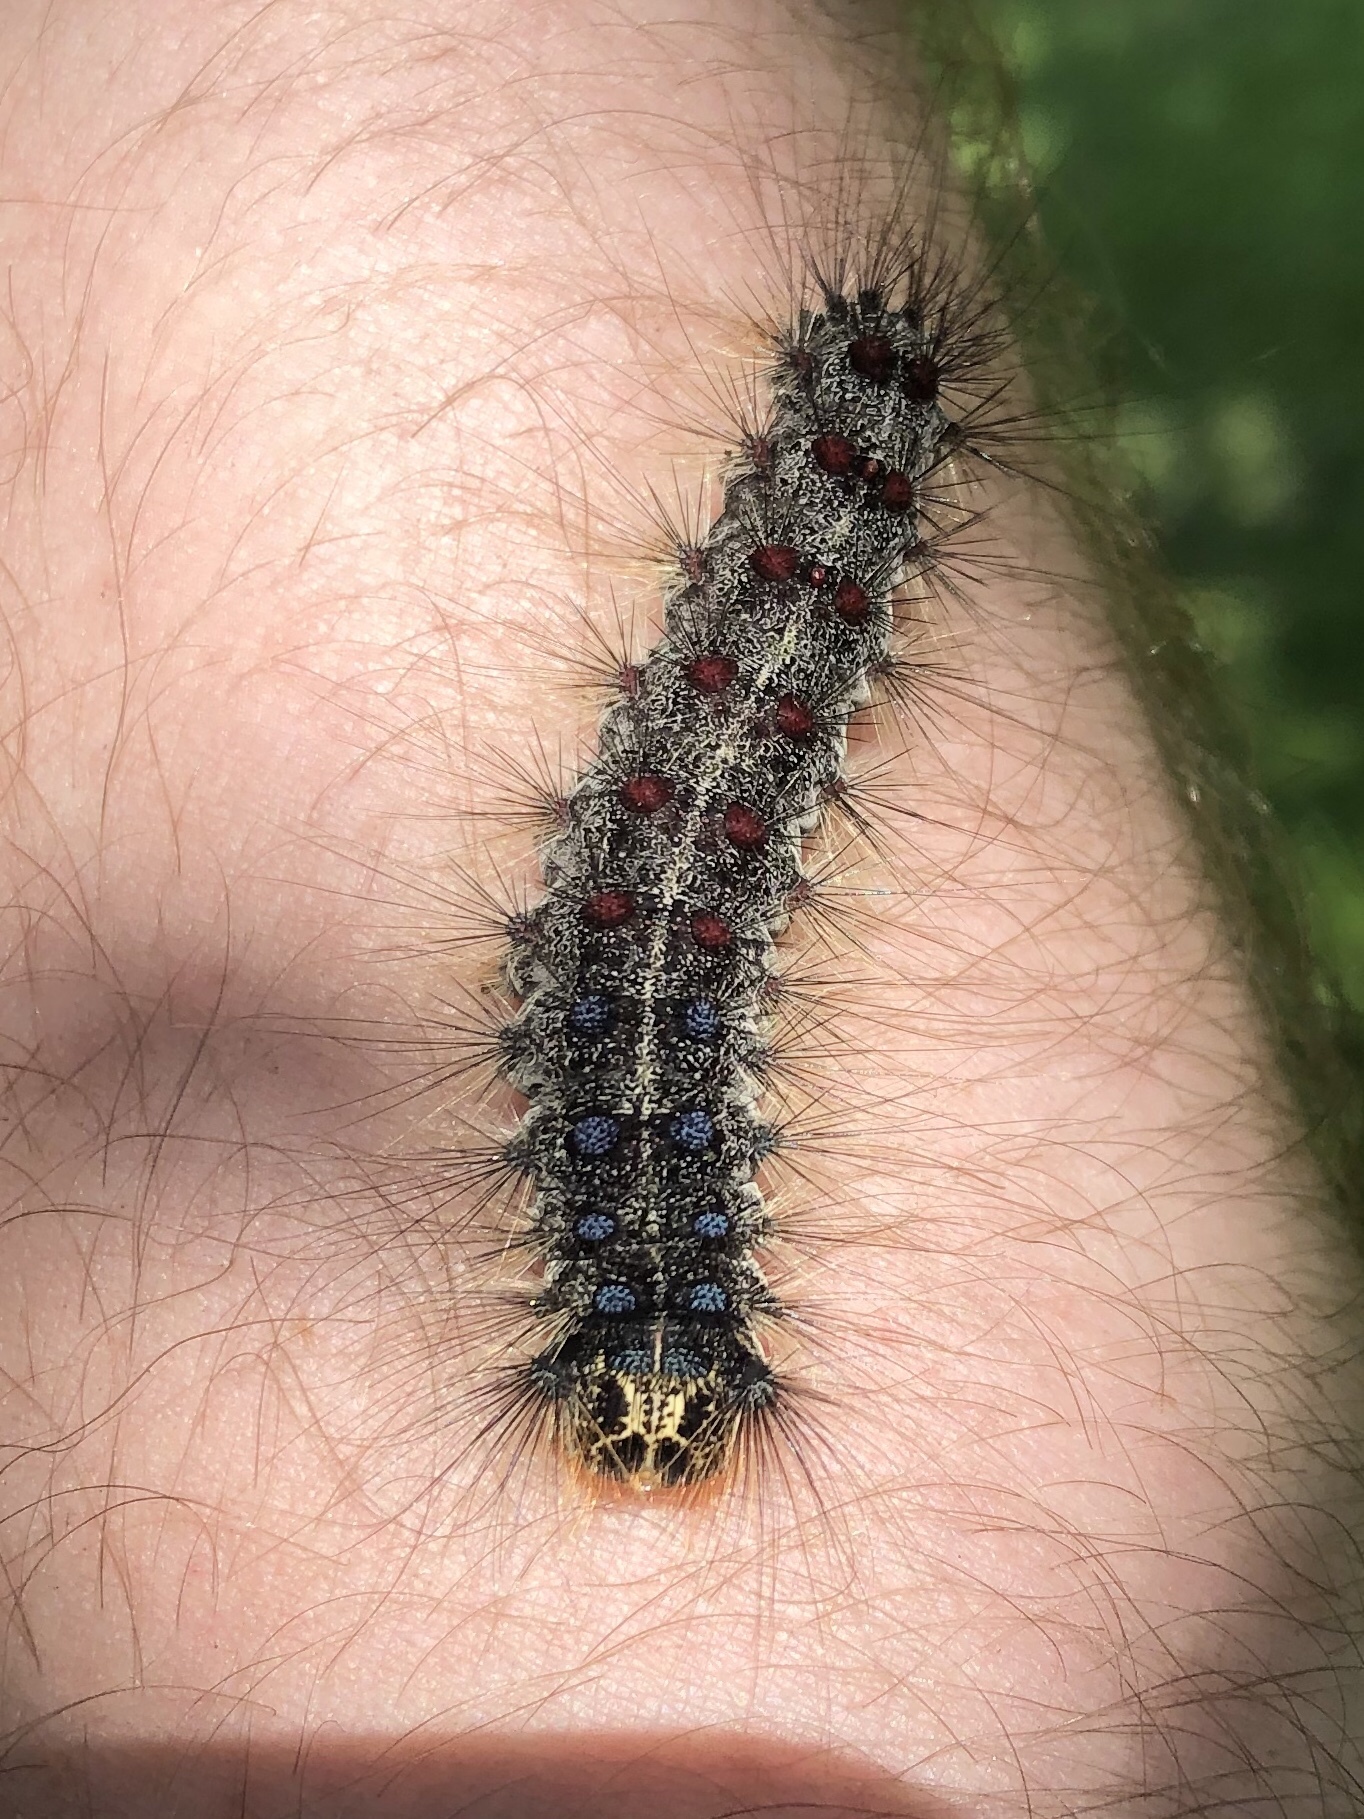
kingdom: Animalia
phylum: Arthropoda
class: Insecta
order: Lepidoptera
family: Erebidae
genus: Lymantria
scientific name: Lymantria dispar
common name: Gypsy moth
